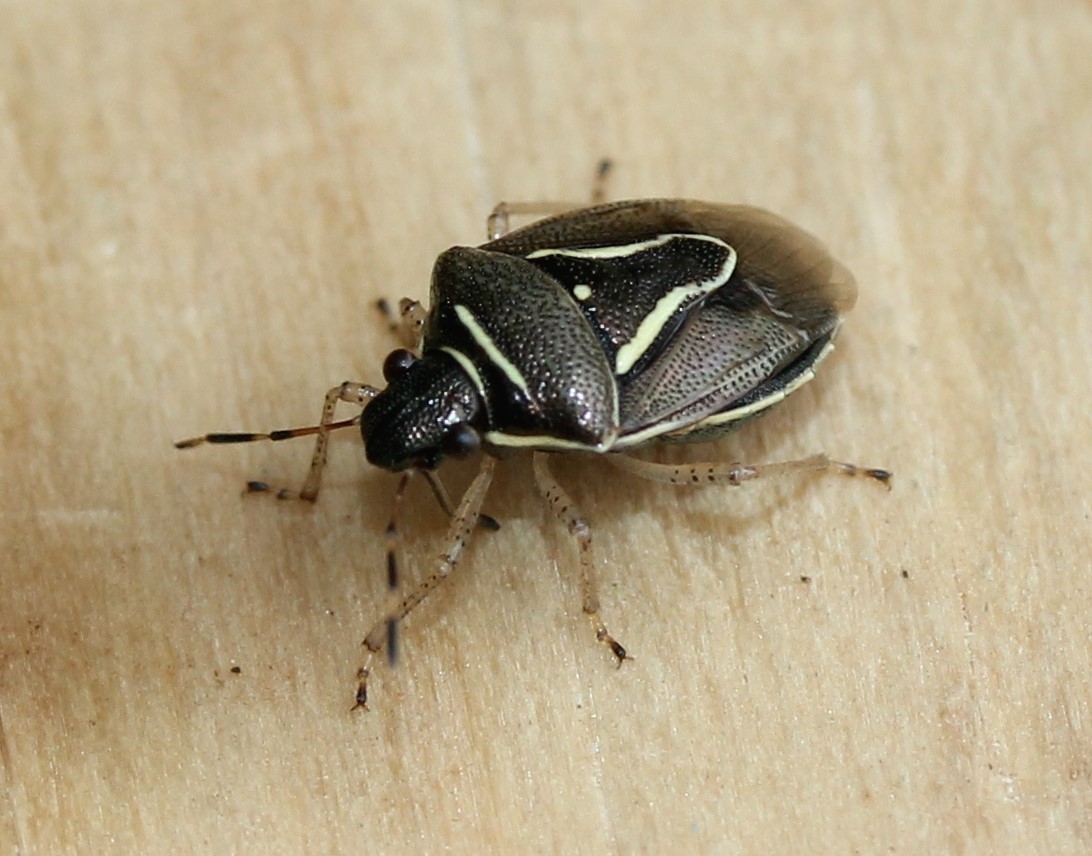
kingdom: Animalia
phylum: Arthropoda
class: Insecta
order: Hemiptera
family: Pentatomidae
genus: Mormidea
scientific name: Mormidea lugens
